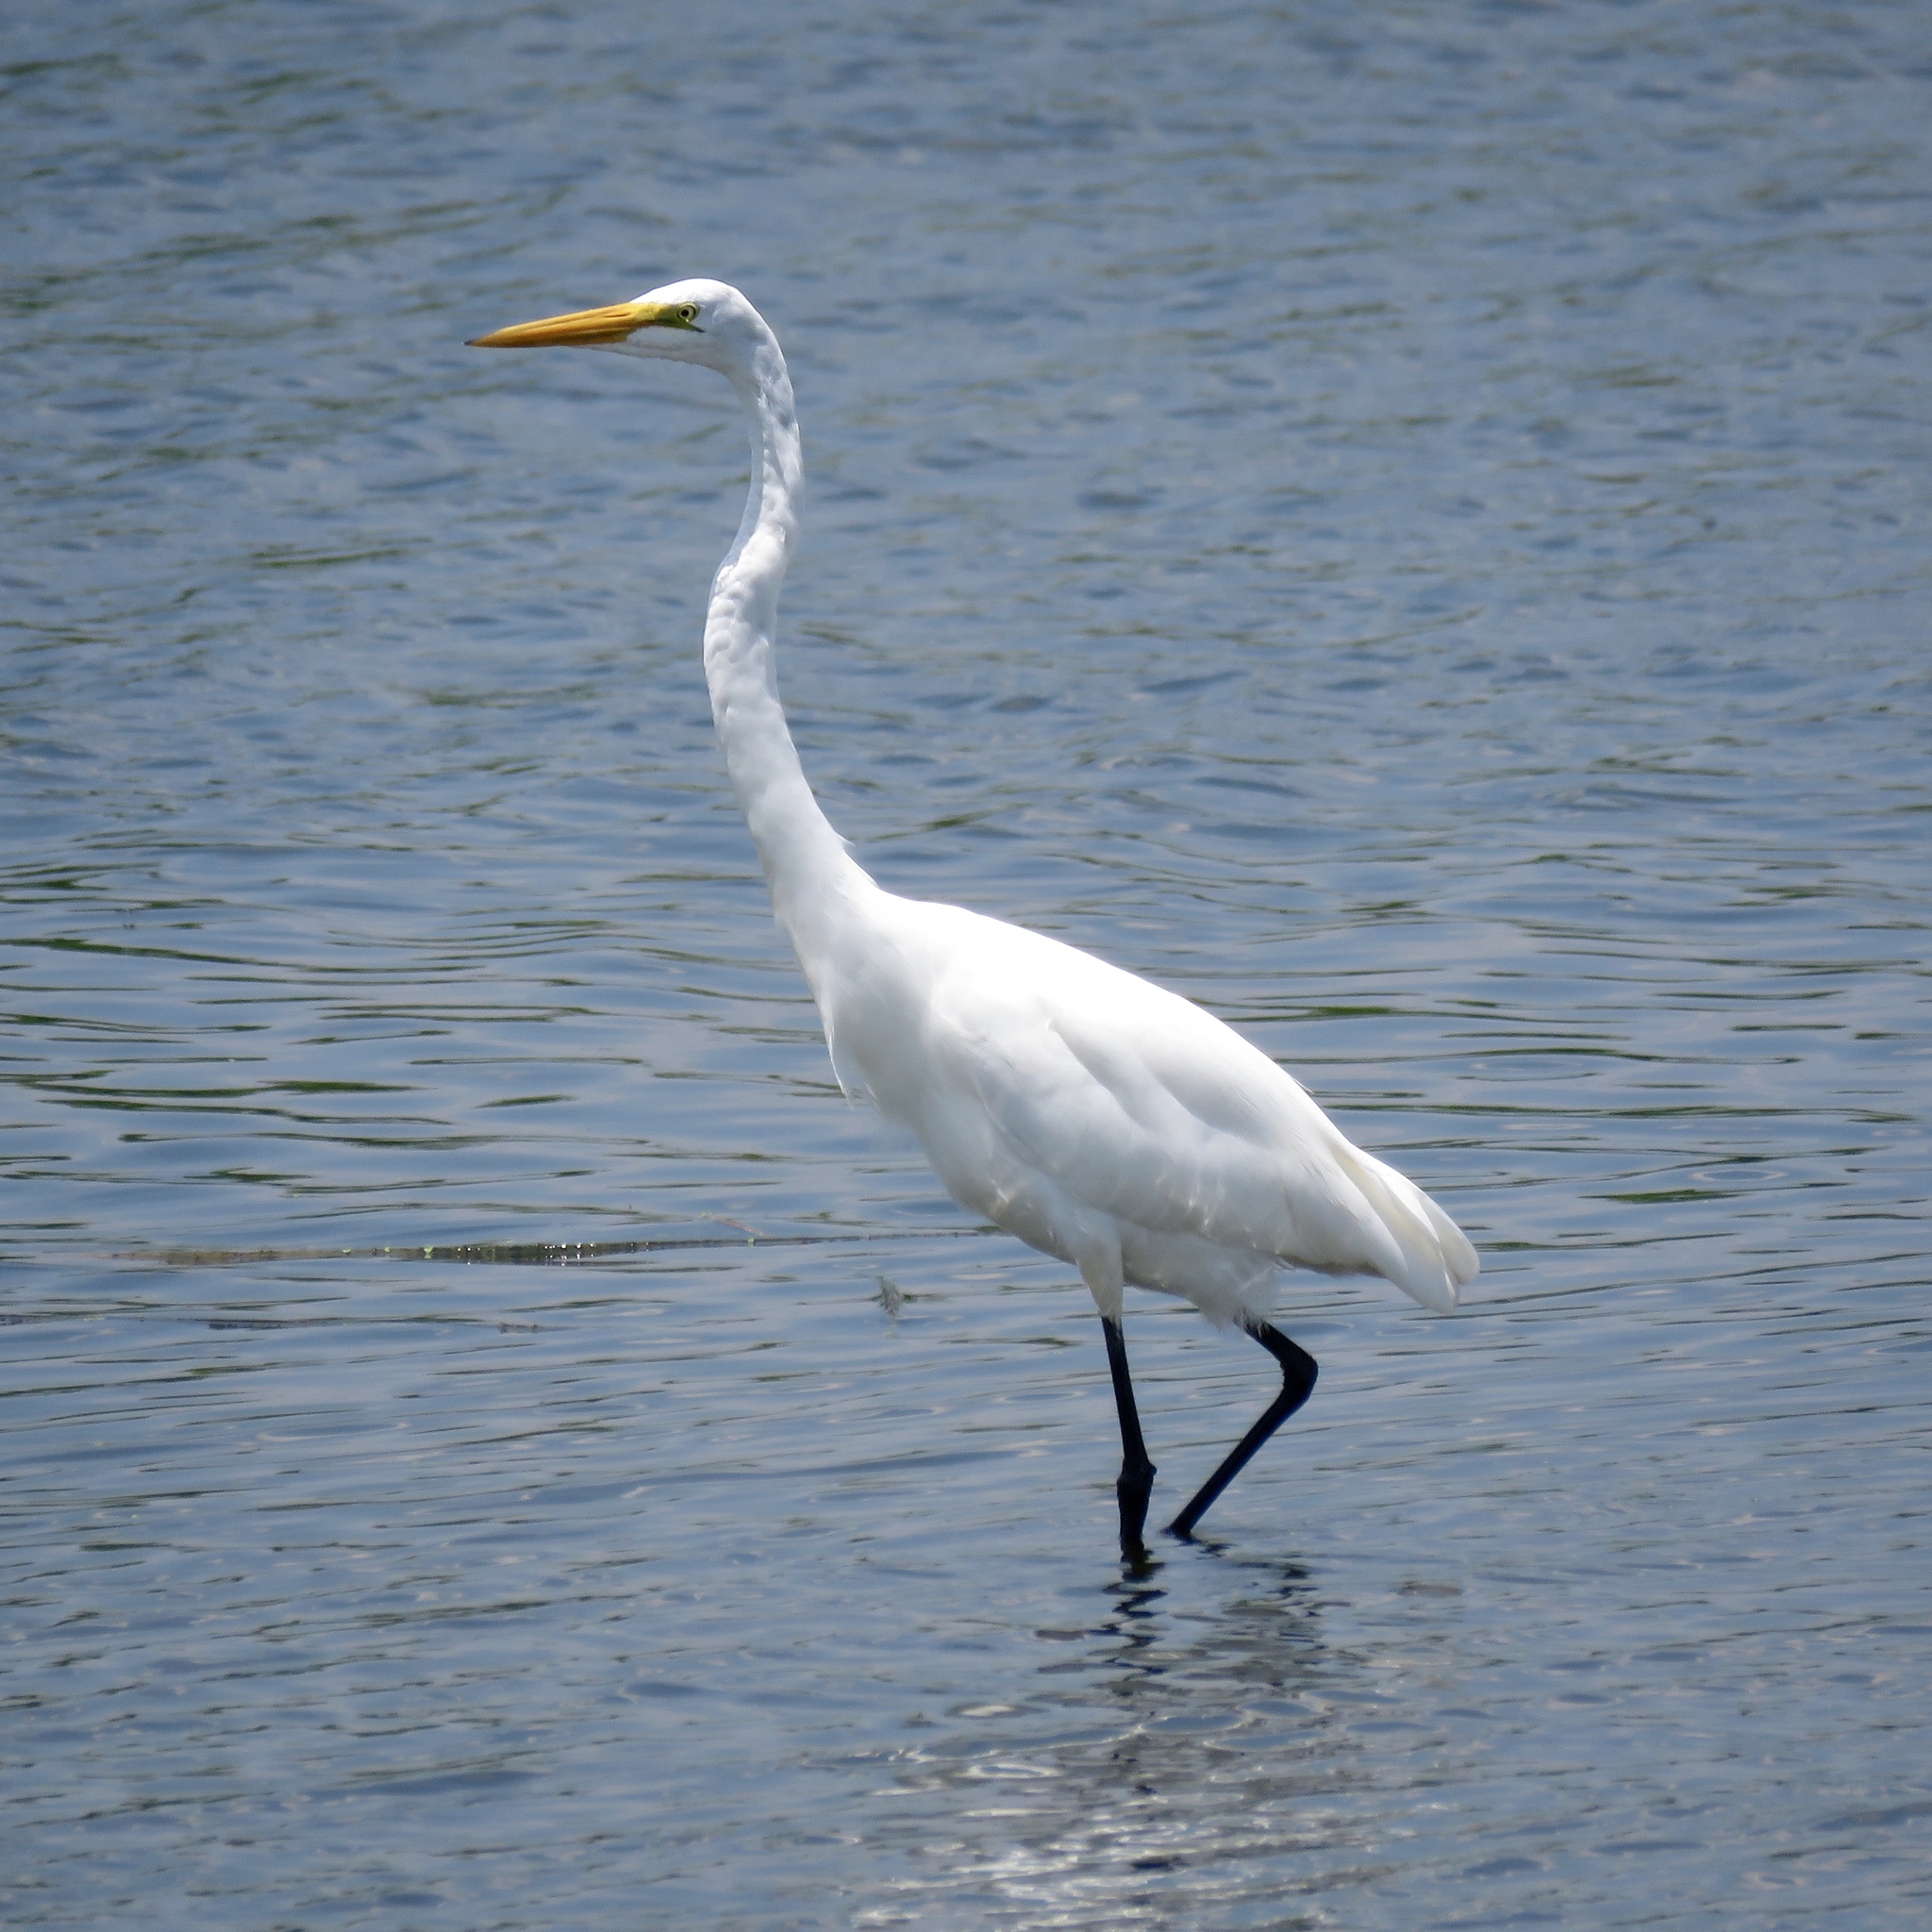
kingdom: Animalia
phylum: Chordata
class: Aves
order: Pelecaniformes
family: Ardeidae
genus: Ardea
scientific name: Ardea alba
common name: Great egret
